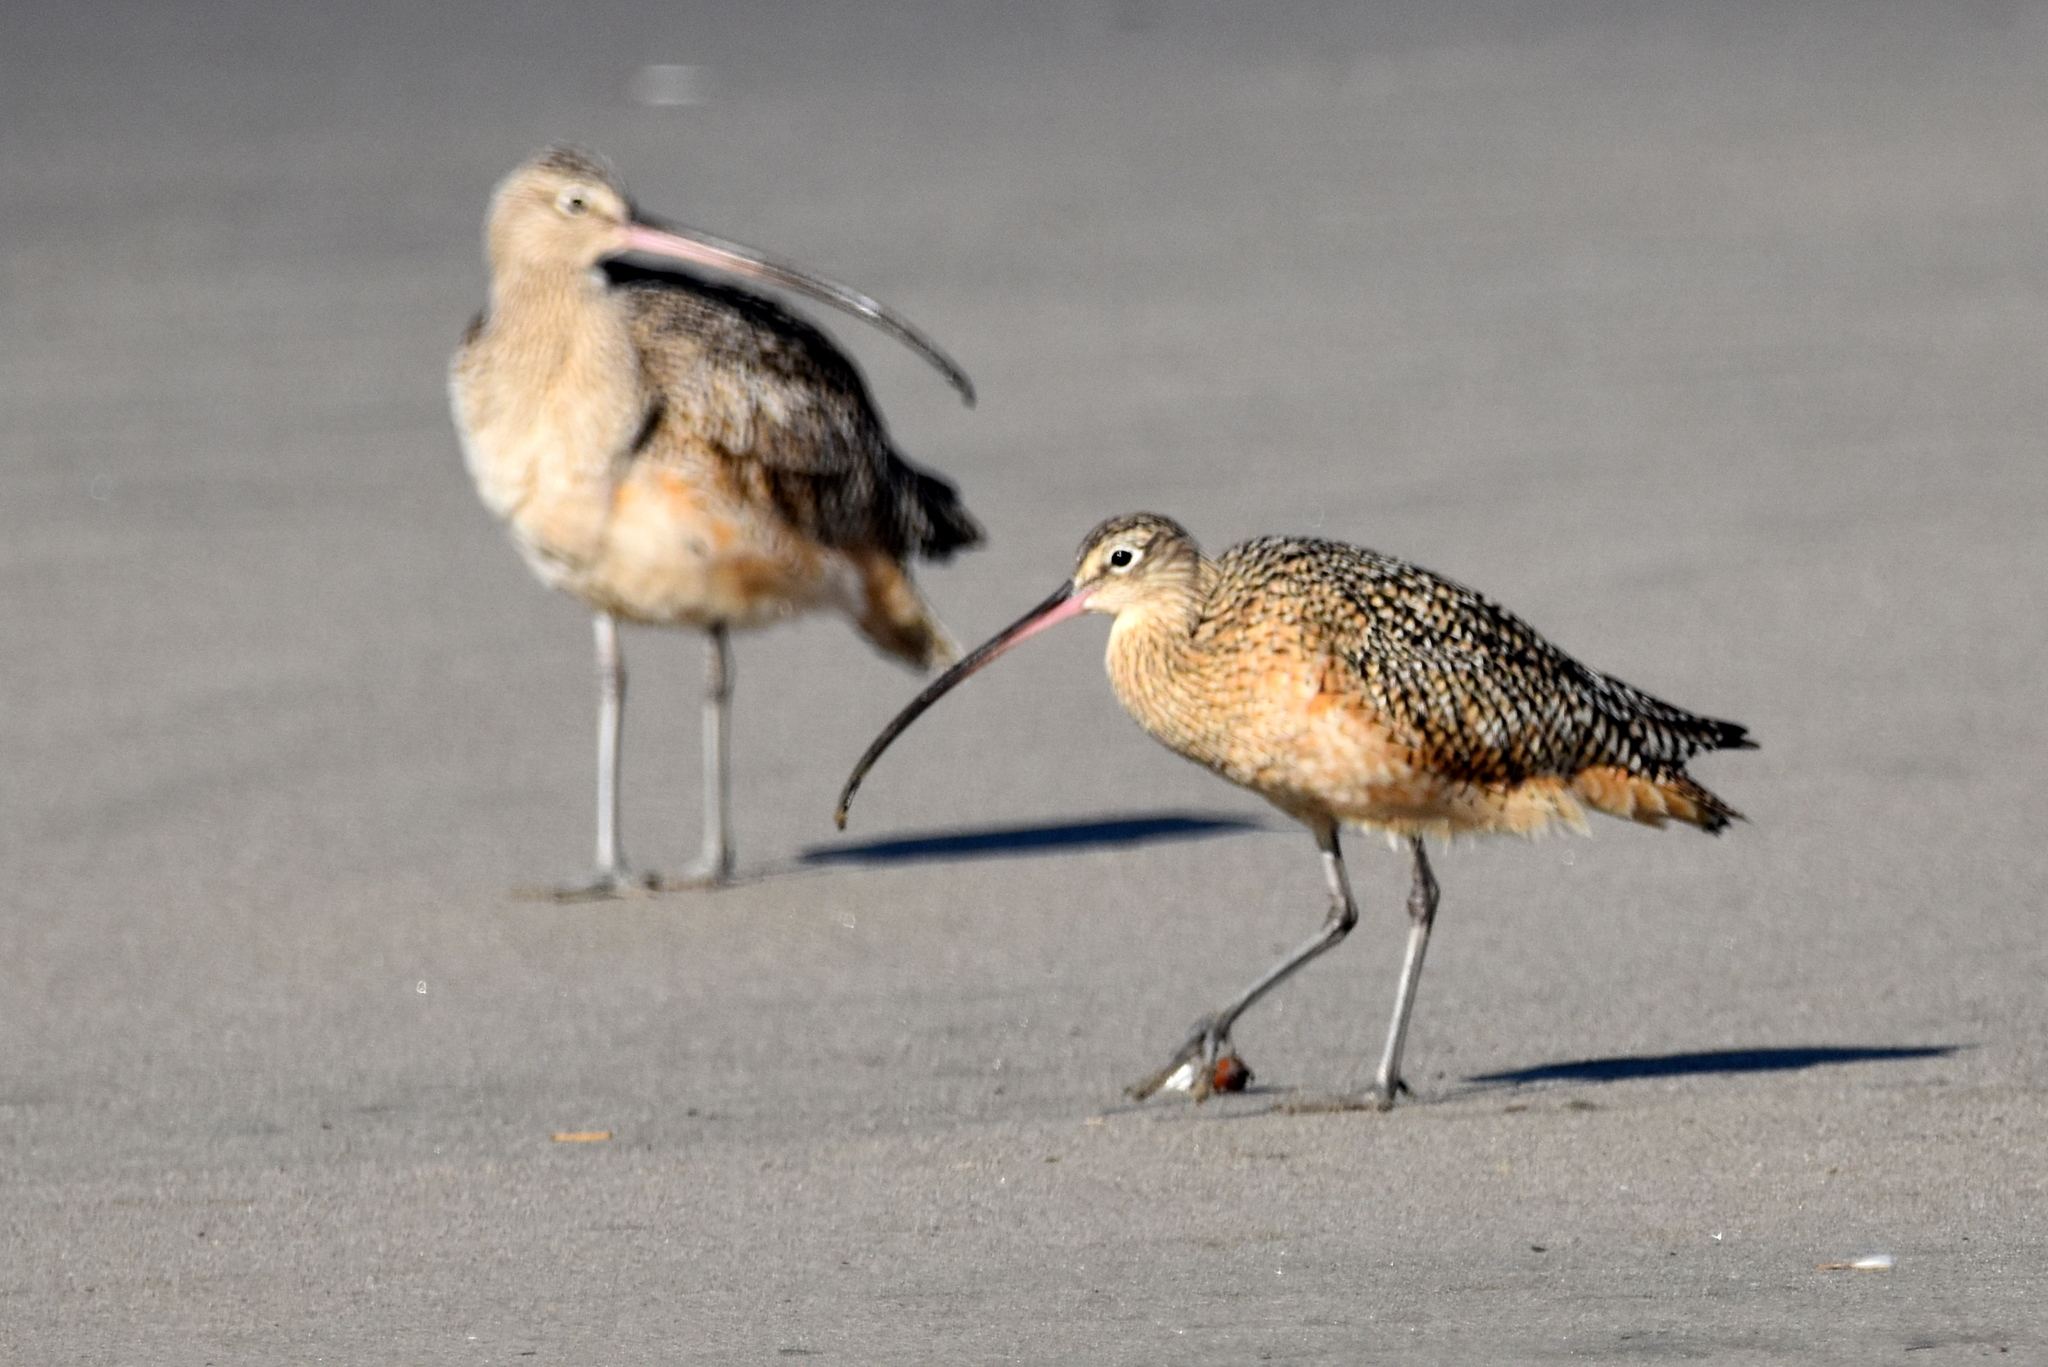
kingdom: Animalia
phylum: Chordata
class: Aves
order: Charadriiformes
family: Scolopacidae
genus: Numenius
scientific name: Numenius americanus
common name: Long-billed curlew
